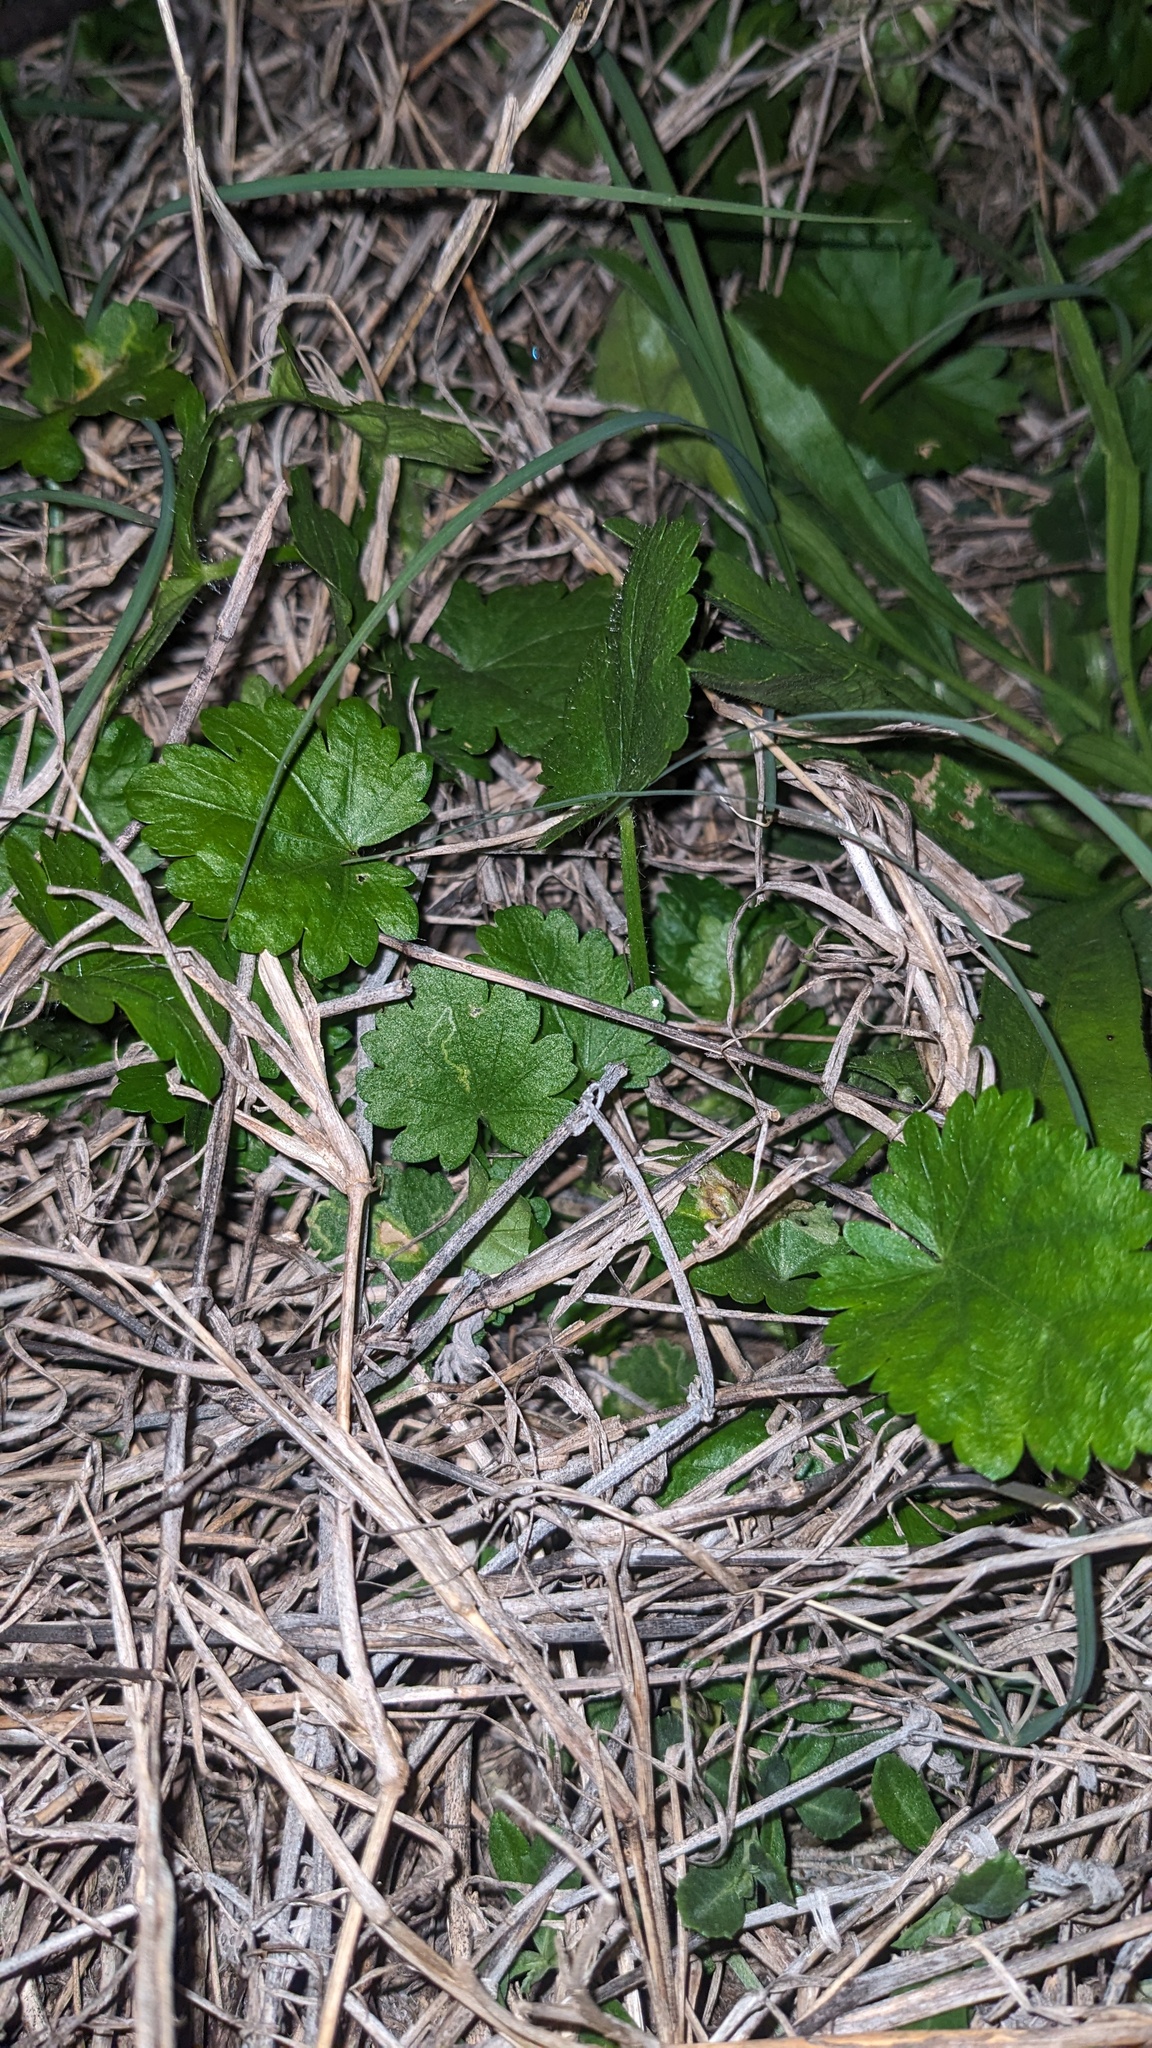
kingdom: Plantae
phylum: Tracheophyta
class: Magnoliopsida
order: Malvales
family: Malvaceae
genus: Modiola
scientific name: Modiola caroliniana
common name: Carolina bristlemallow
